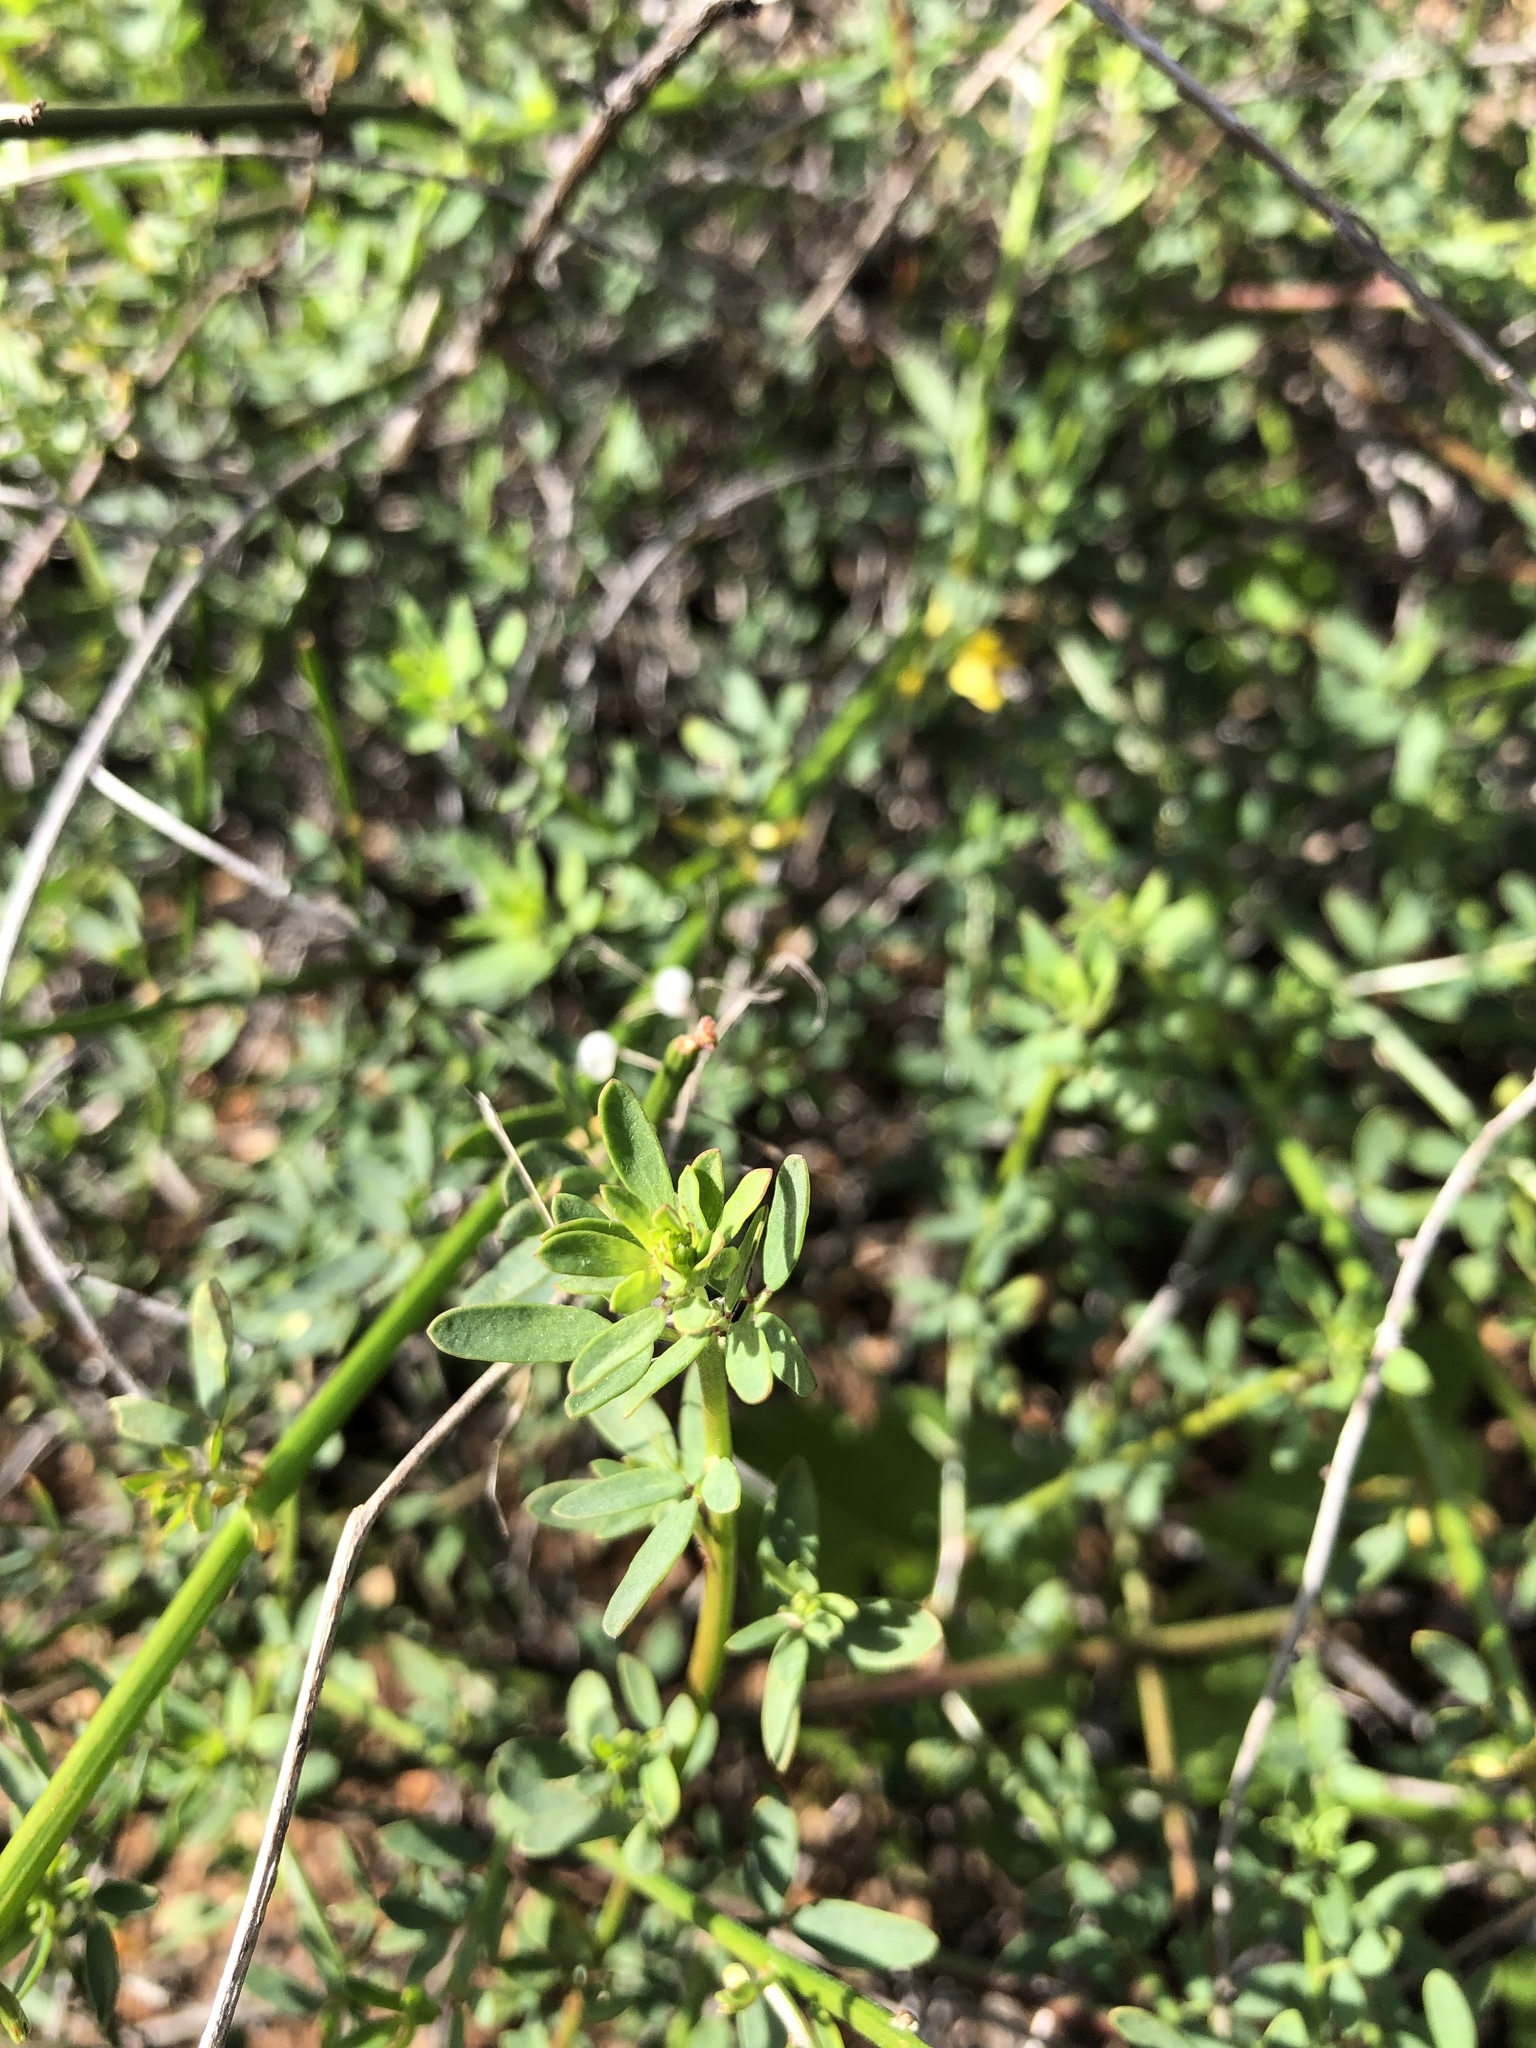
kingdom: Plantae
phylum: Tracheophyta
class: Magnoliopsida
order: Fabales
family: Fabaceae
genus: Acmispon
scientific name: Acmispon glaber
